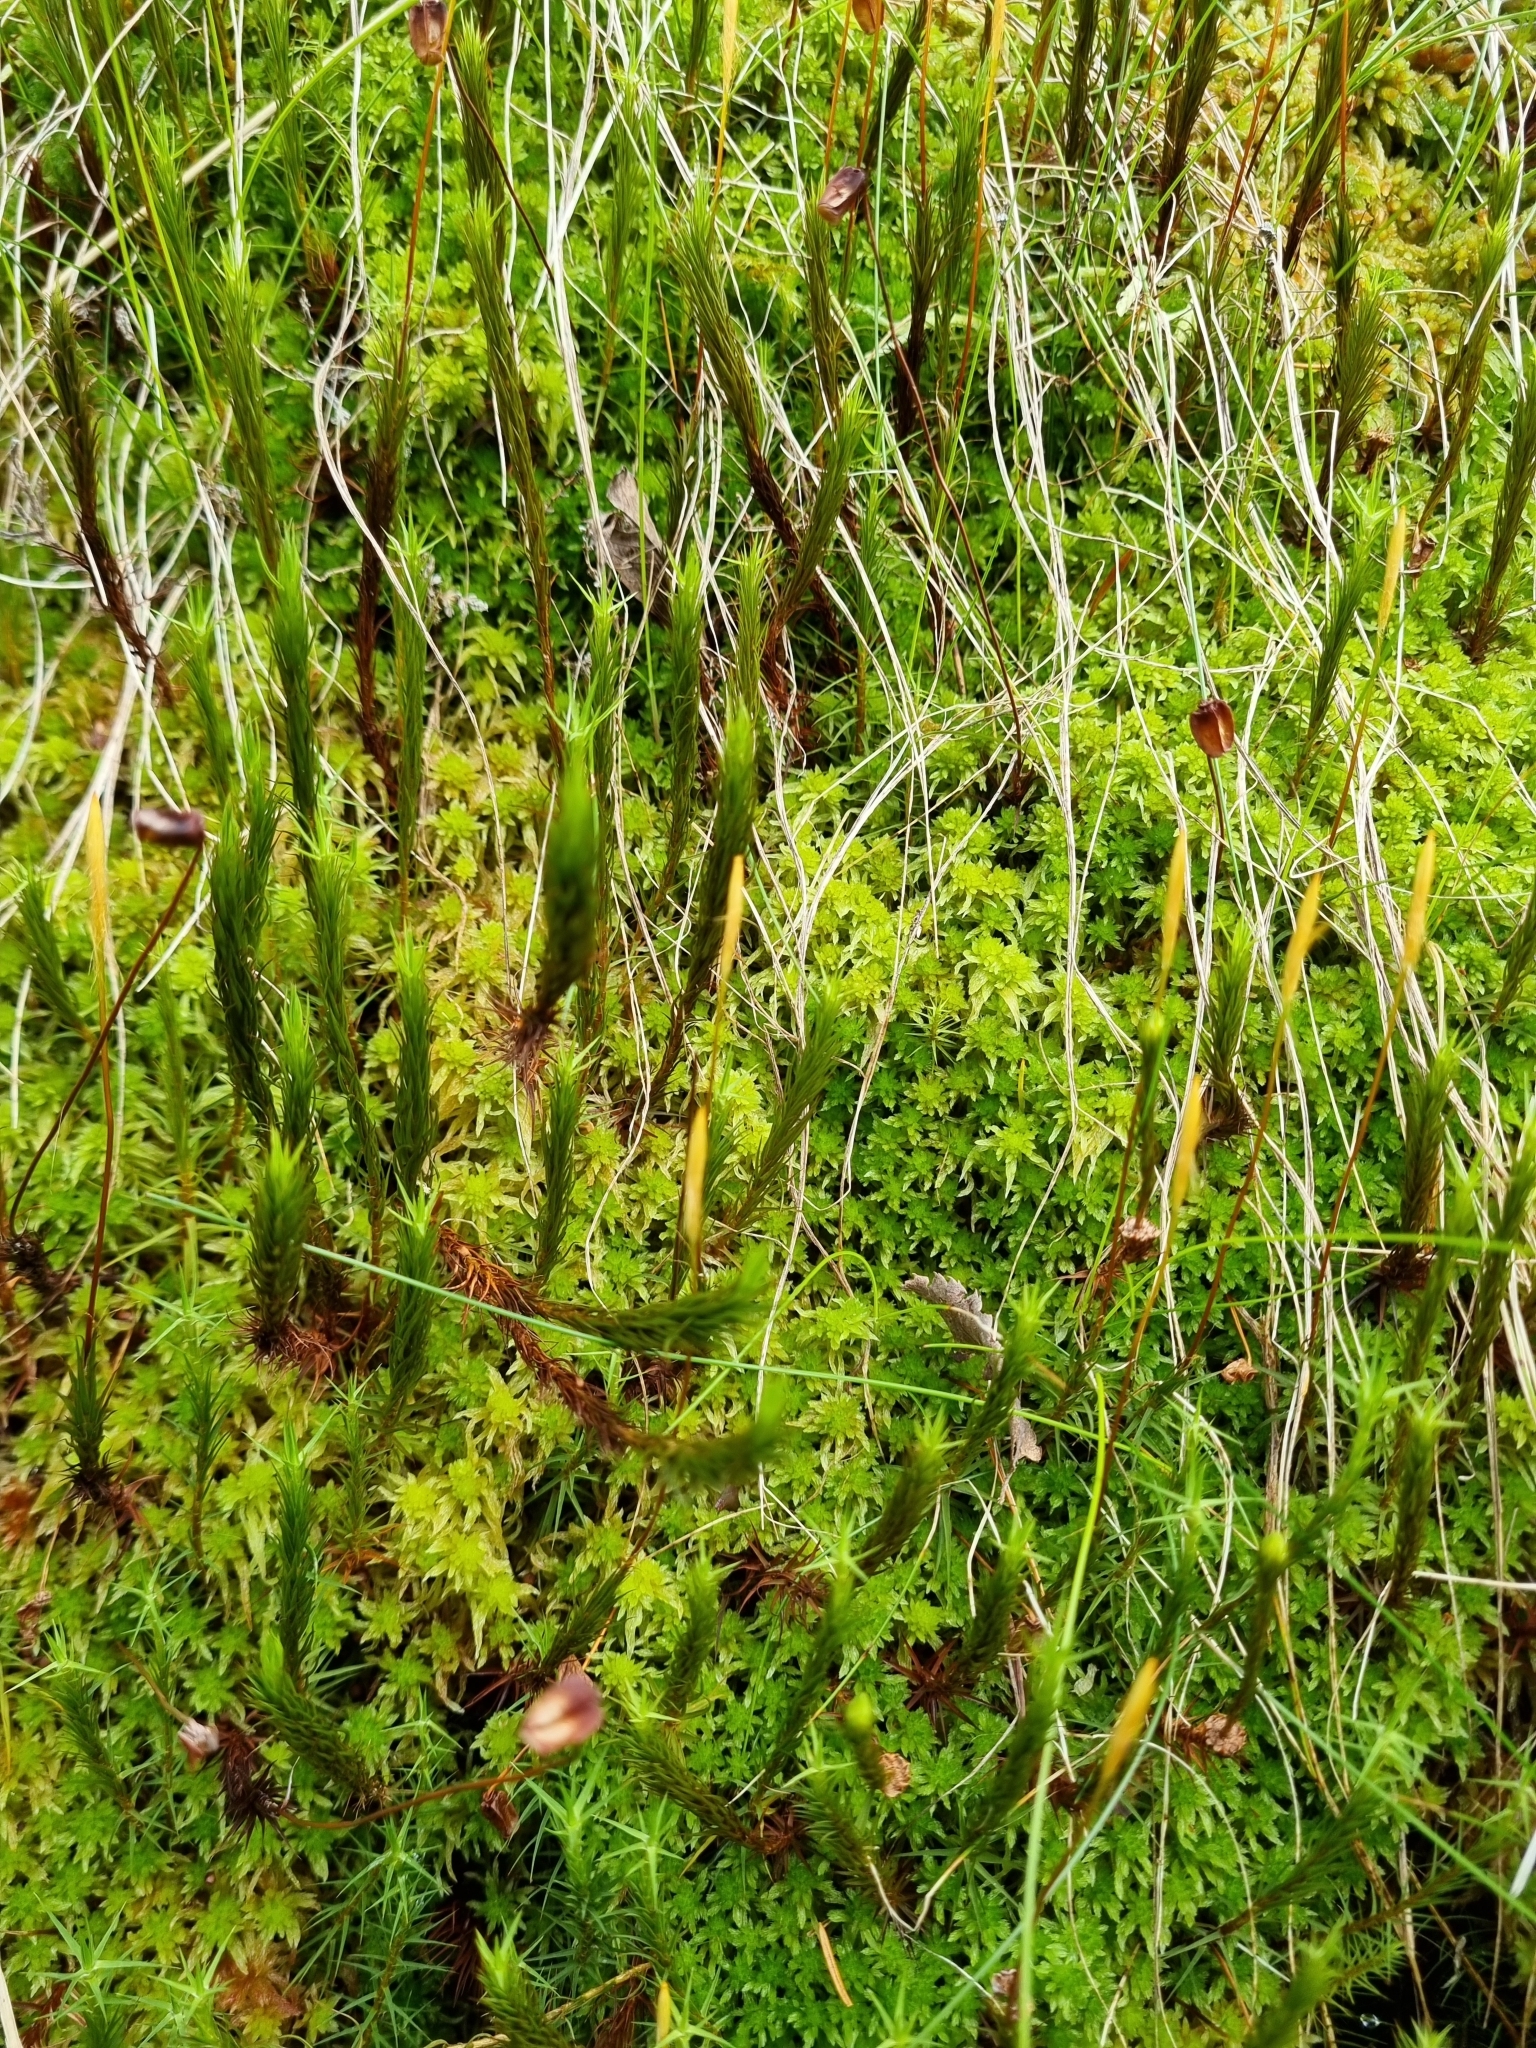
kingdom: Plantae
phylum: Bryophyta
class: Polytrichopsida
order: Polytrichales
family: Polytrichaceae
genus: Polytrichum
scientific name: Polytrichum strictum
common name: Bog haircap moss
